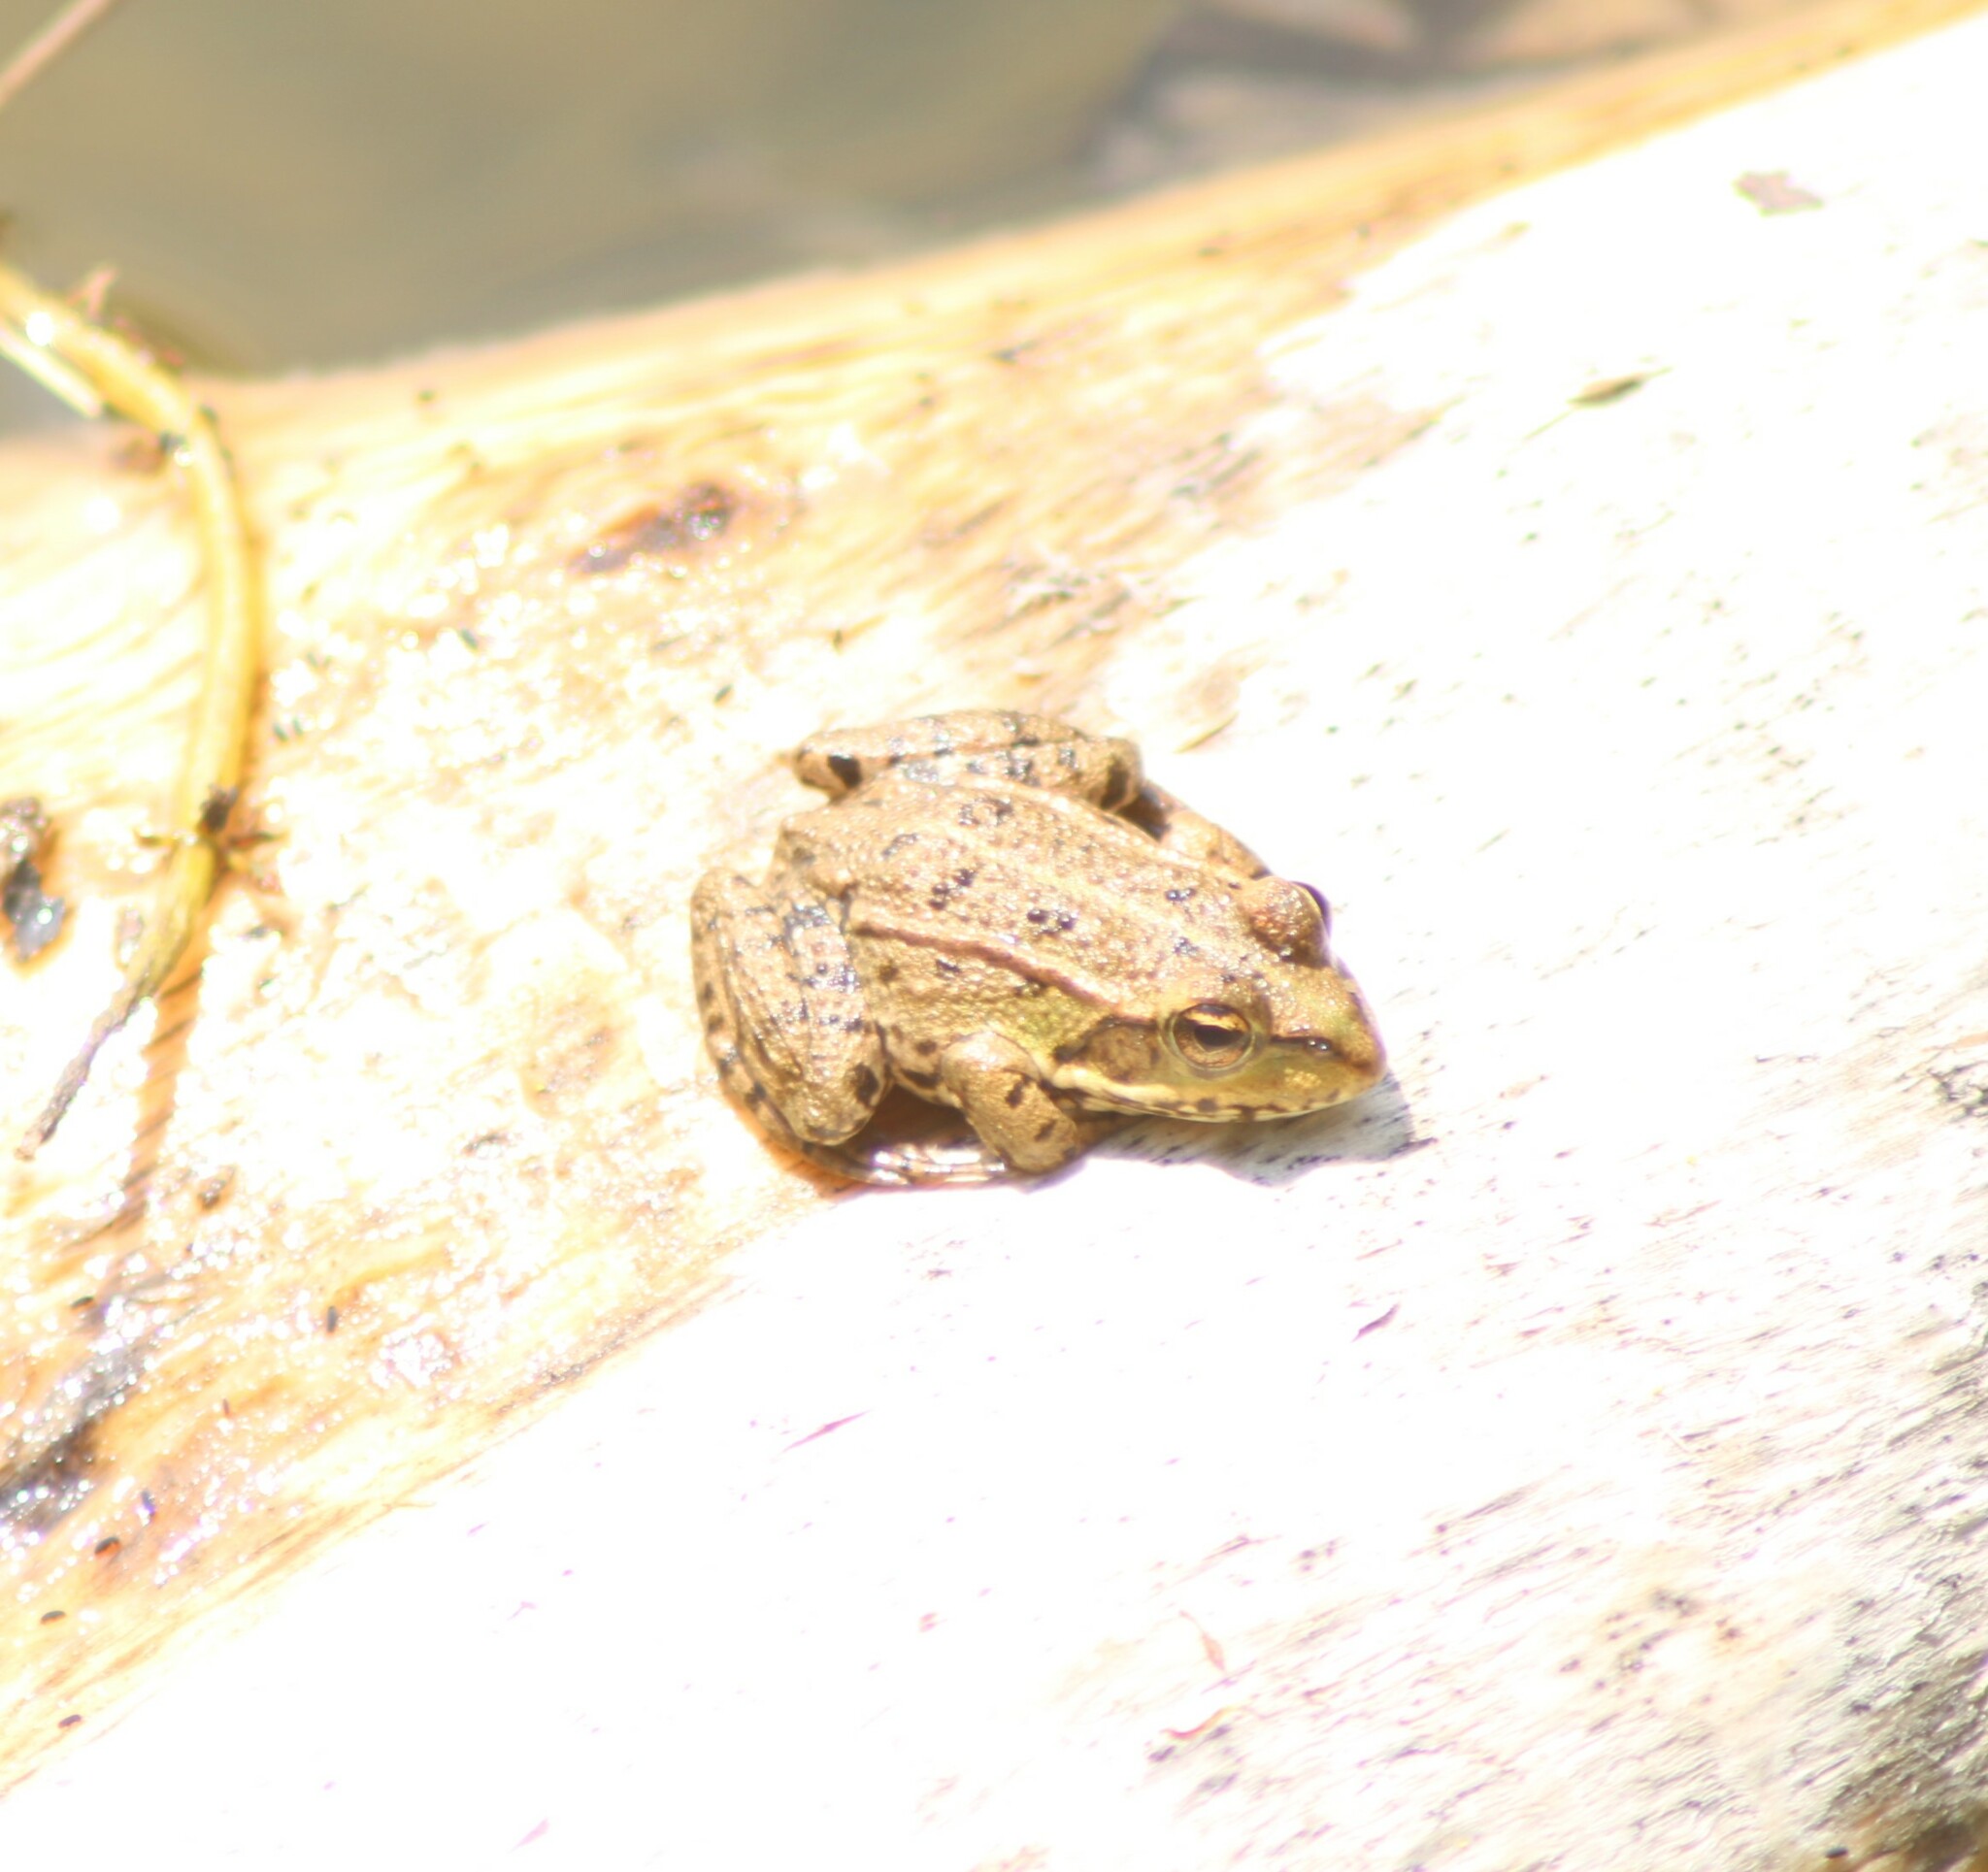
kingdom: Animalia
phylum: Chordata
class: Amphibia
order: Anura
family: Ranidae
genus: Pelophylax
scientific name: Pelophylax
